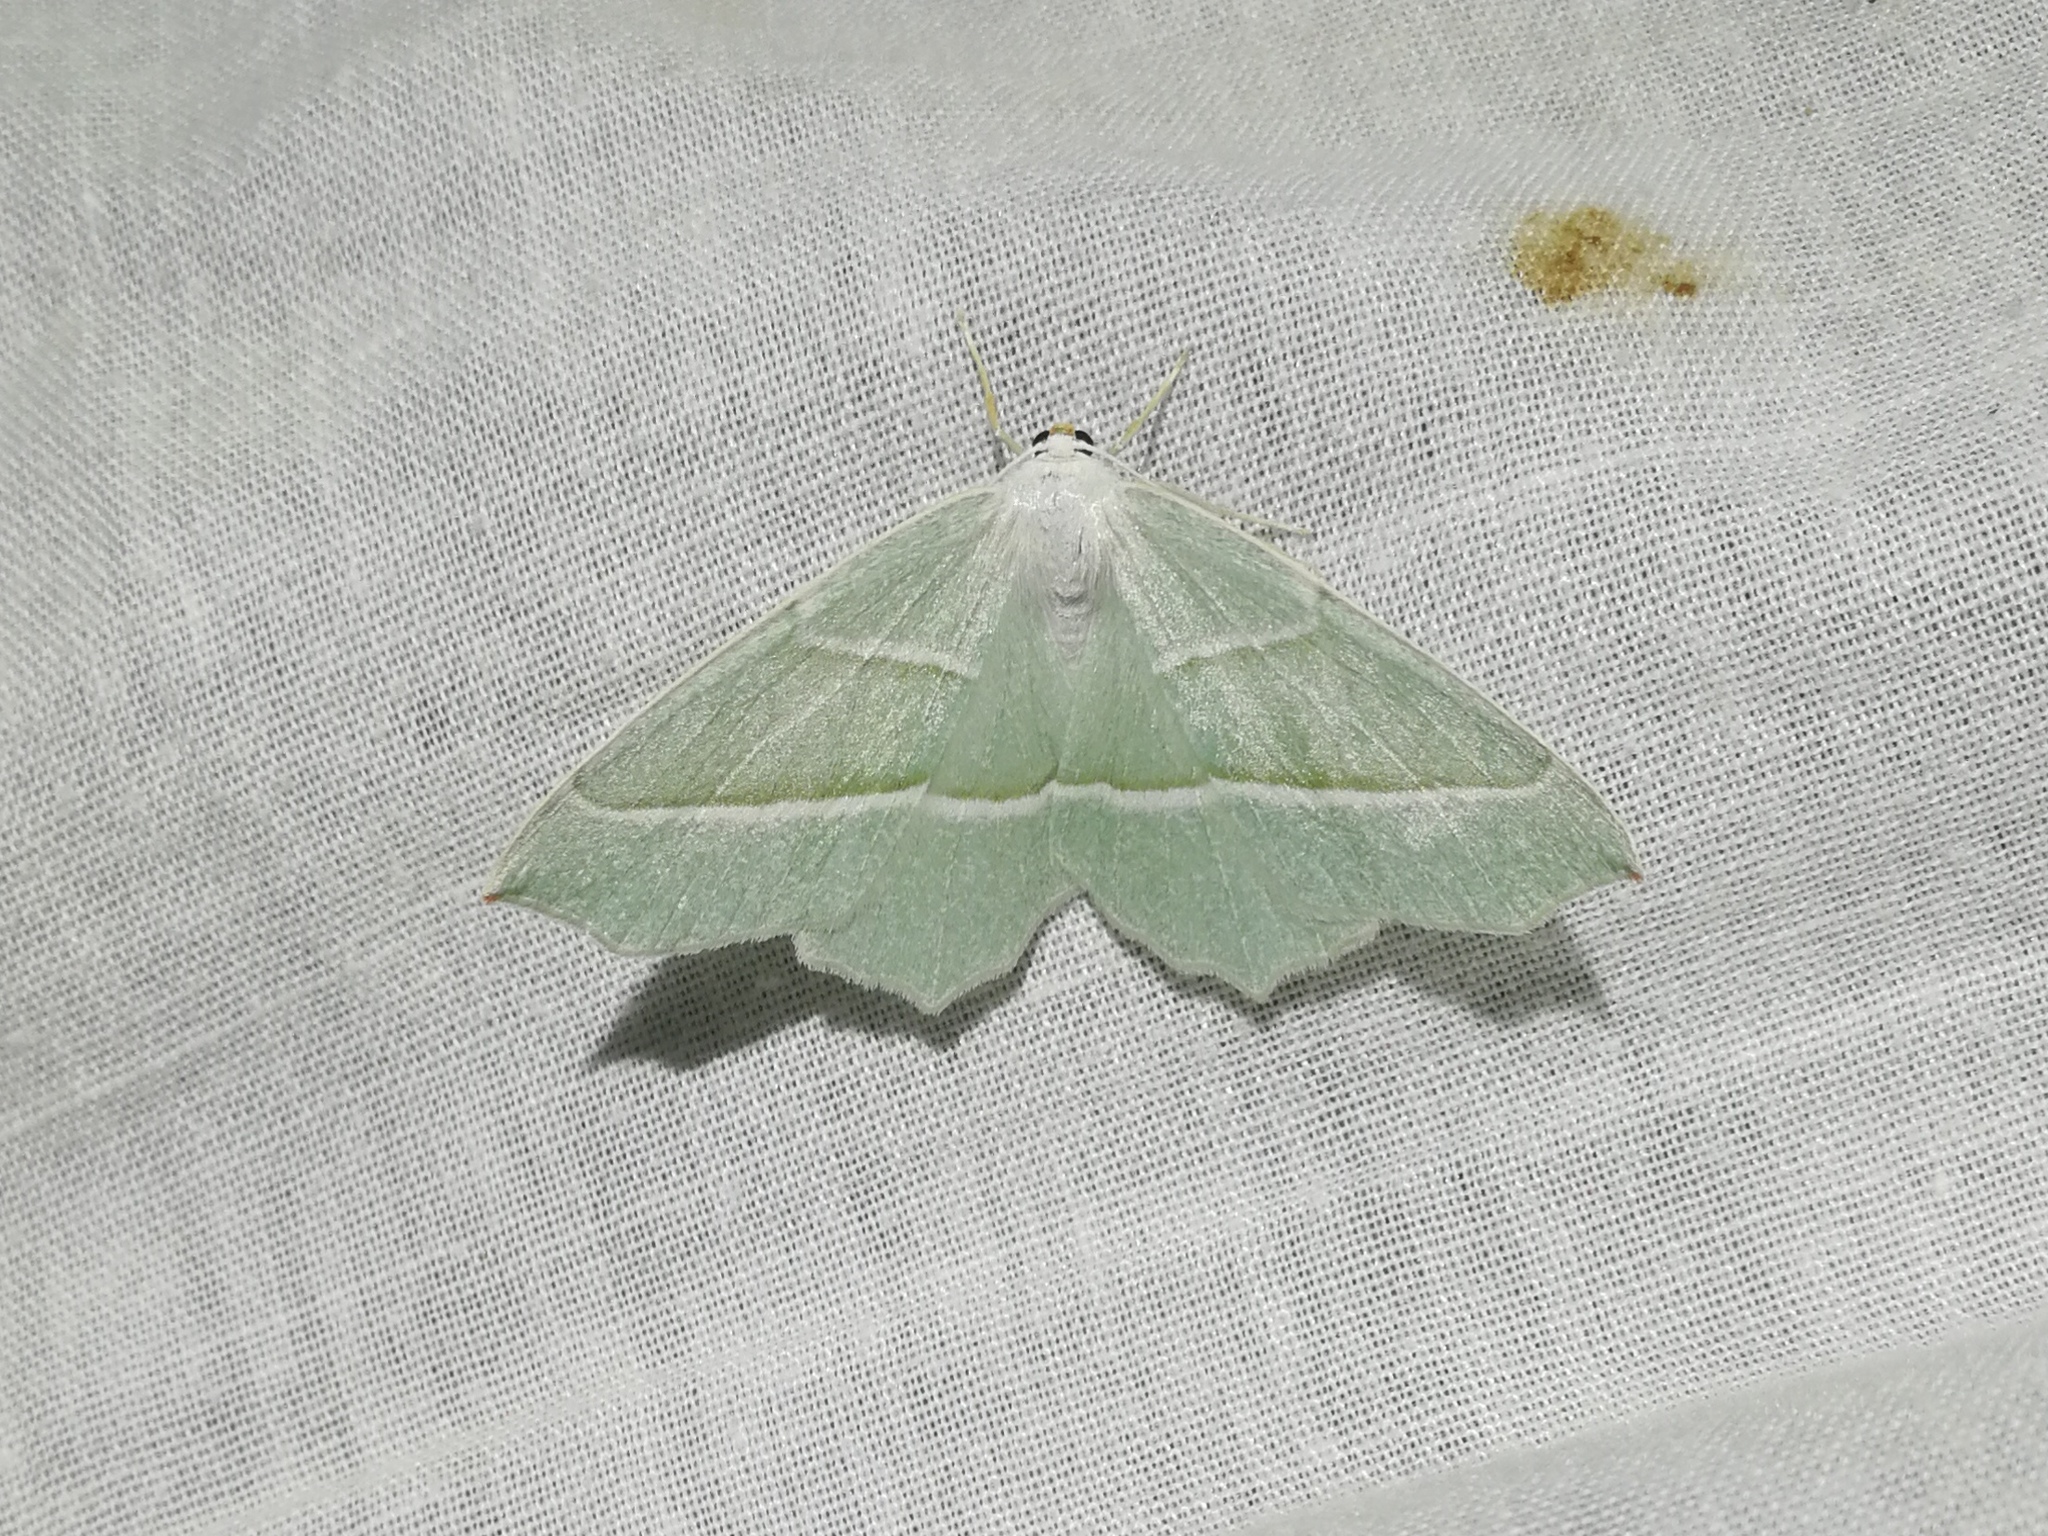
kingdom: Animalia
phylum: Arthropoda
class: Insecta
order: Lepidoptera
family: Geometridae
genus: Campaea
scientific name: Campaea margaritaria
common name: Light emerald
